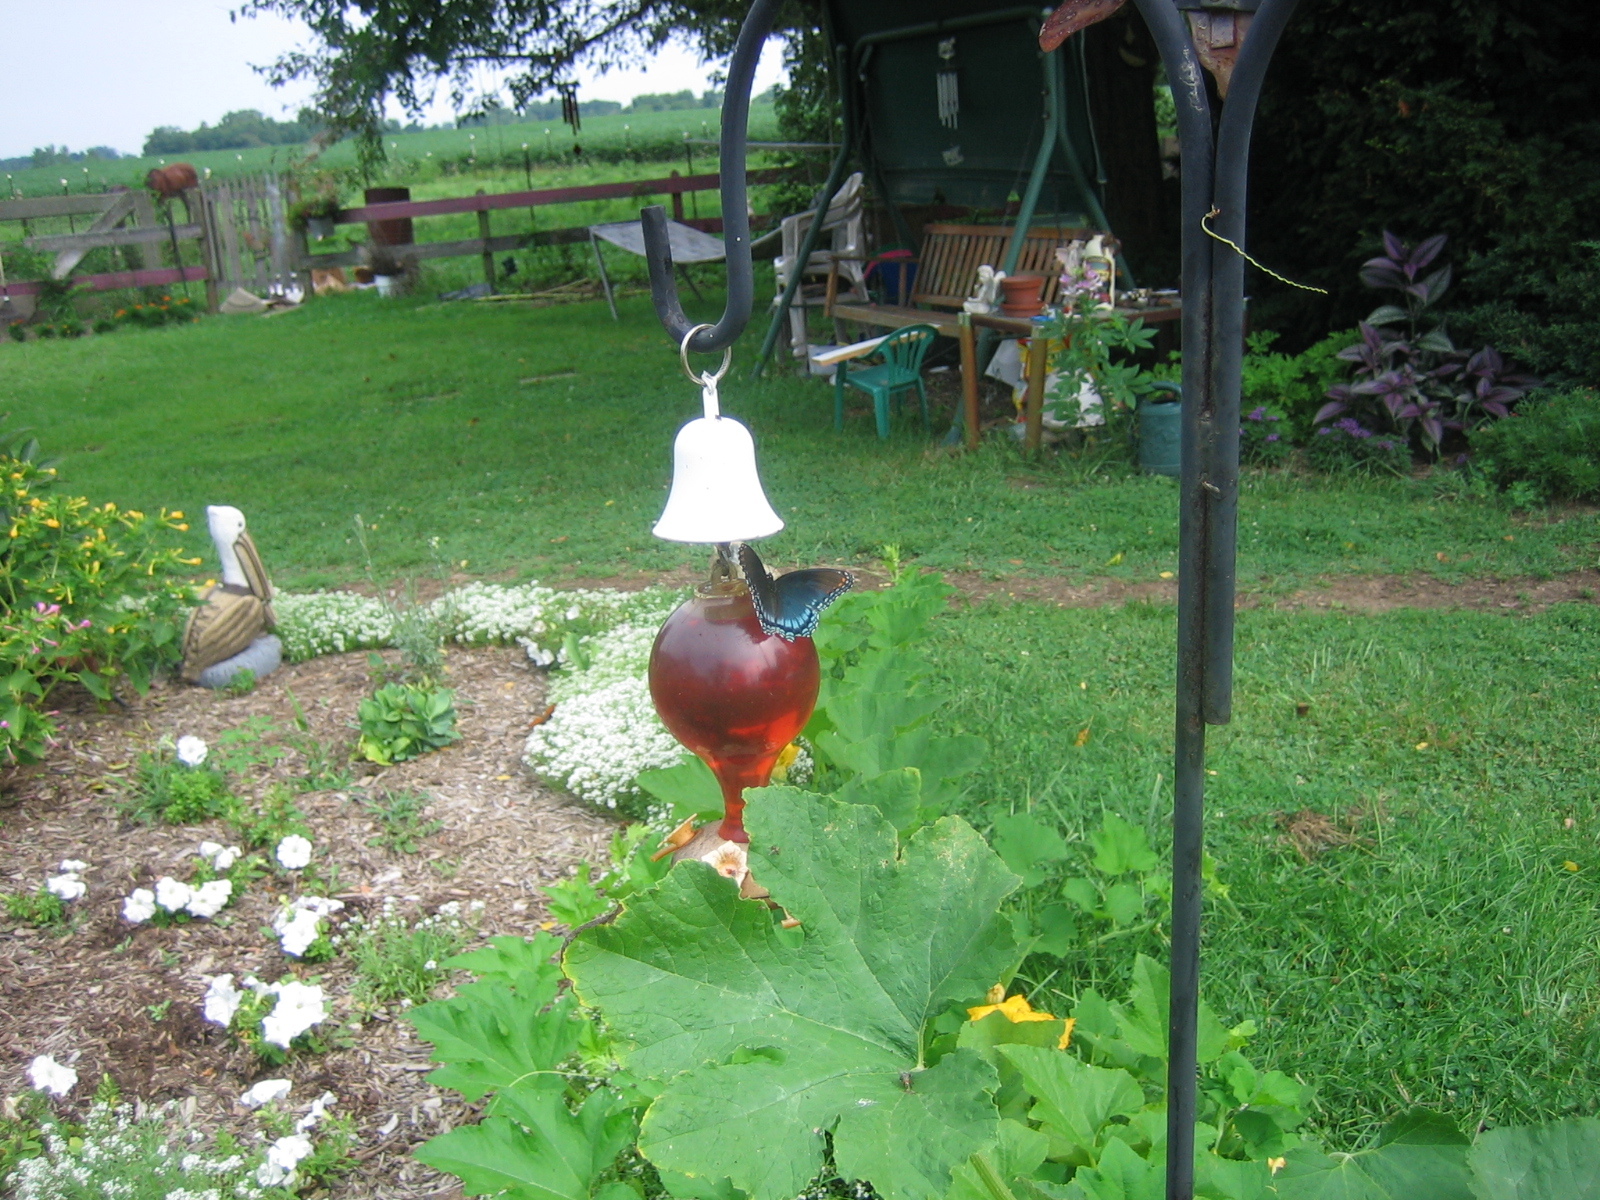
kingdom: Animalia
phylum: Arthropoda
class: Insecta
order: Lepidoptera
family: Nymphalidae
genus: Limenitis
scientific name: Limenitis astyanax
